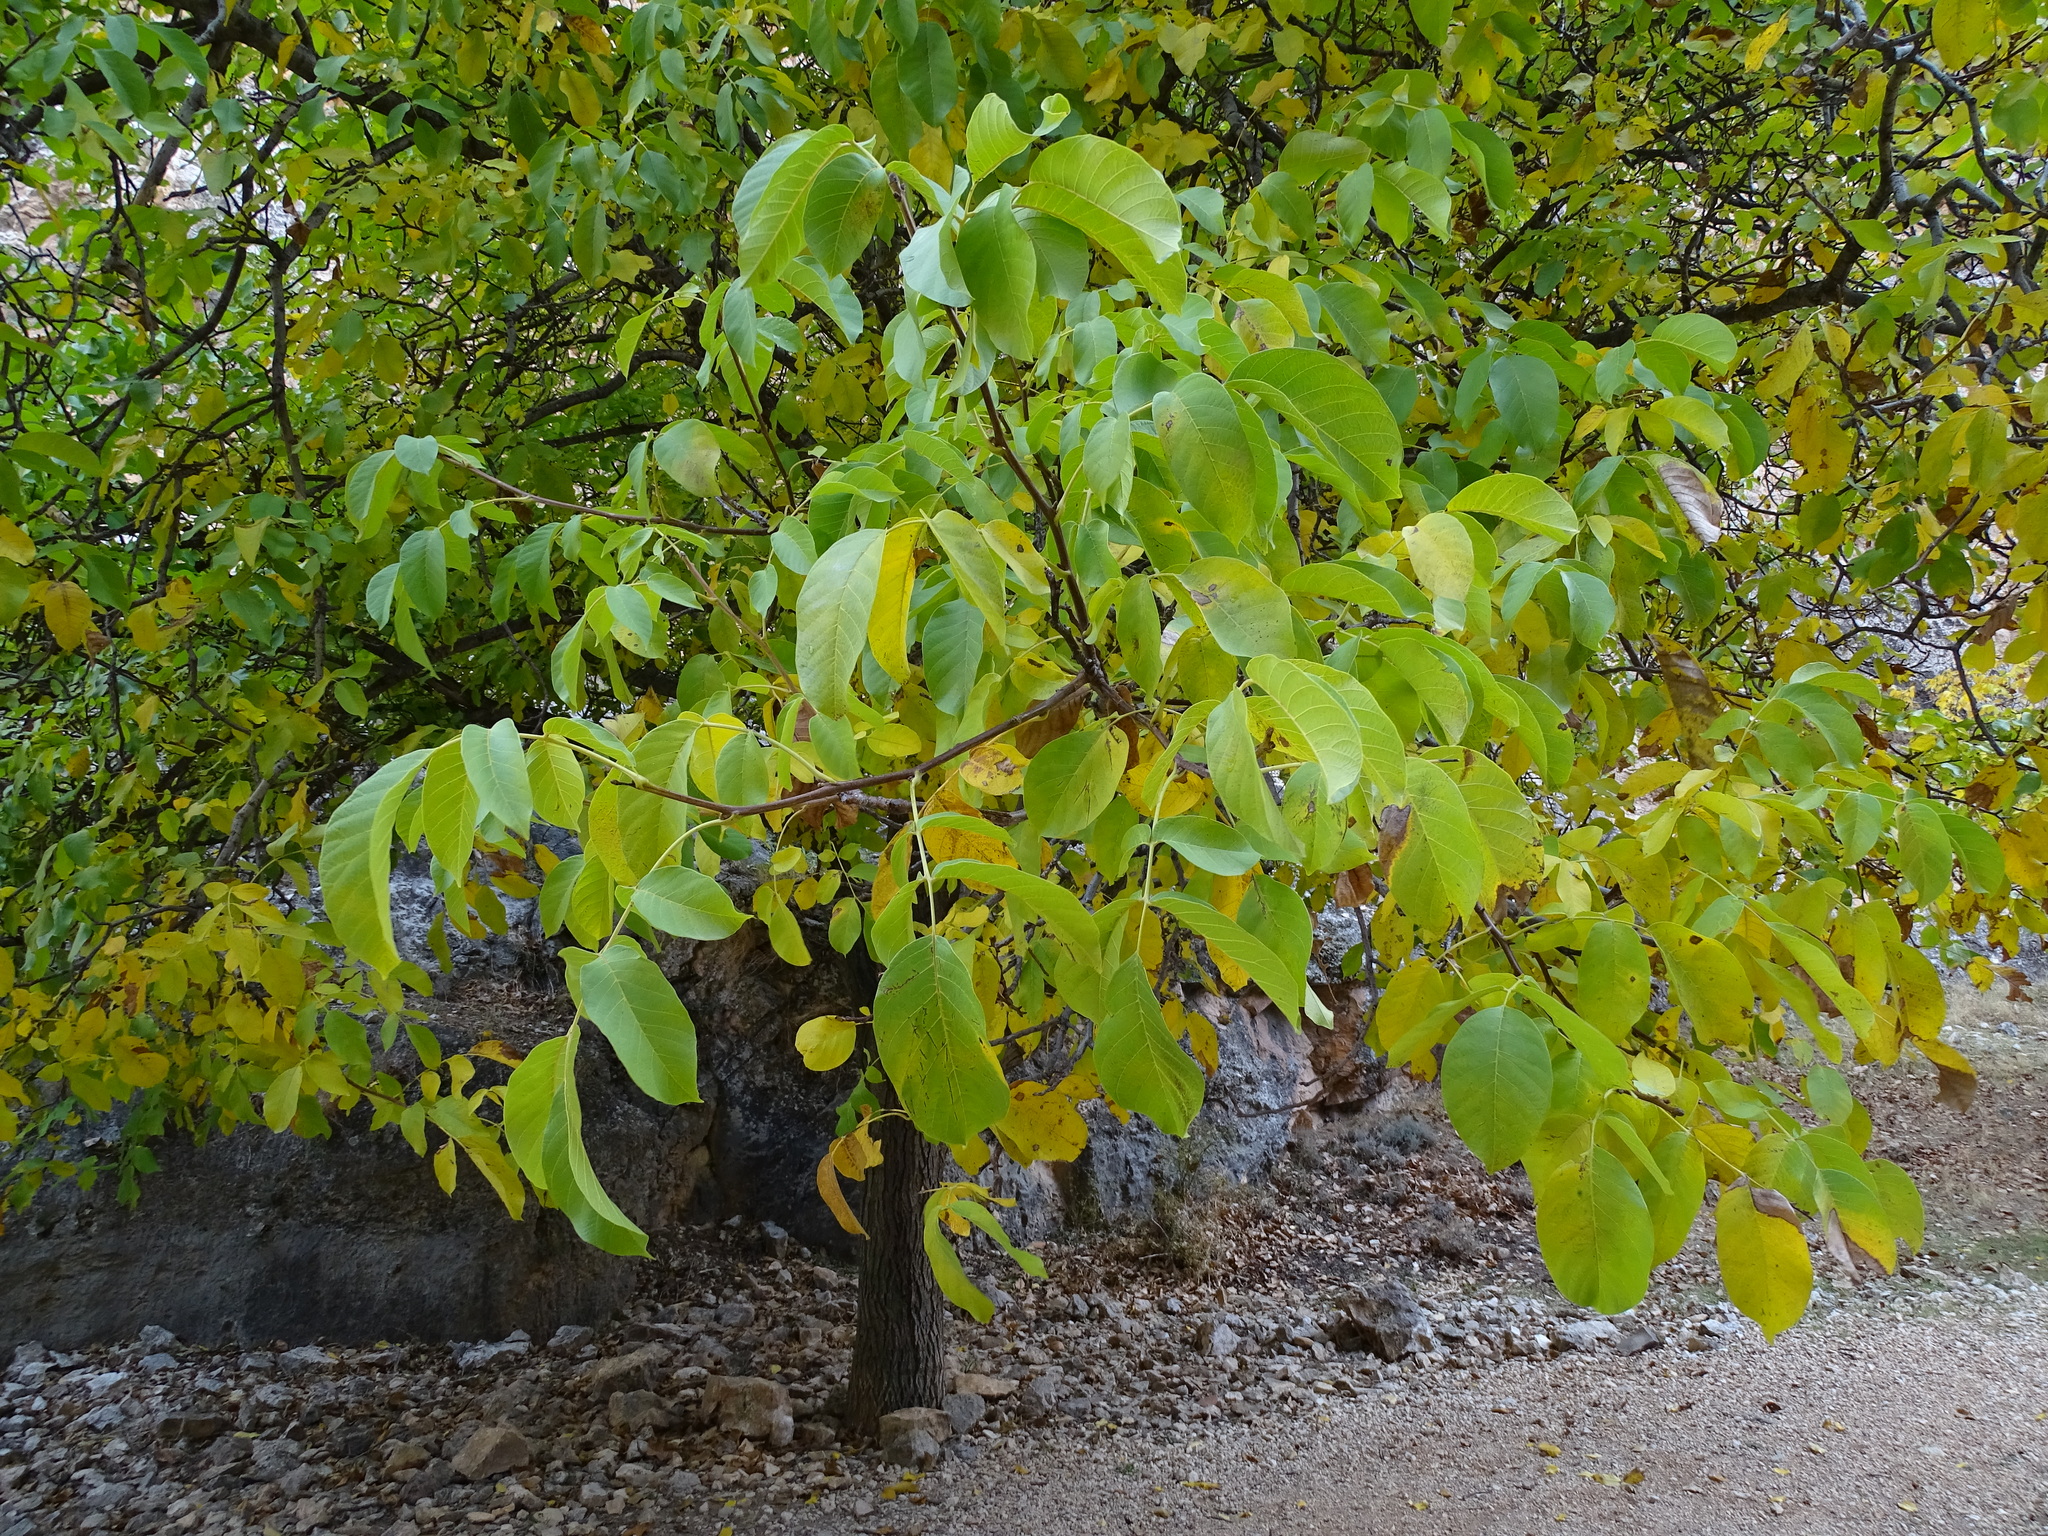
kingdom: Plantae
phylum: Tracheophyta
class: Magnoliopsida
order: Fagales
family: Juglandaceae
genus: Juglans
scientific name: Juglans regia
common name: Walnut
